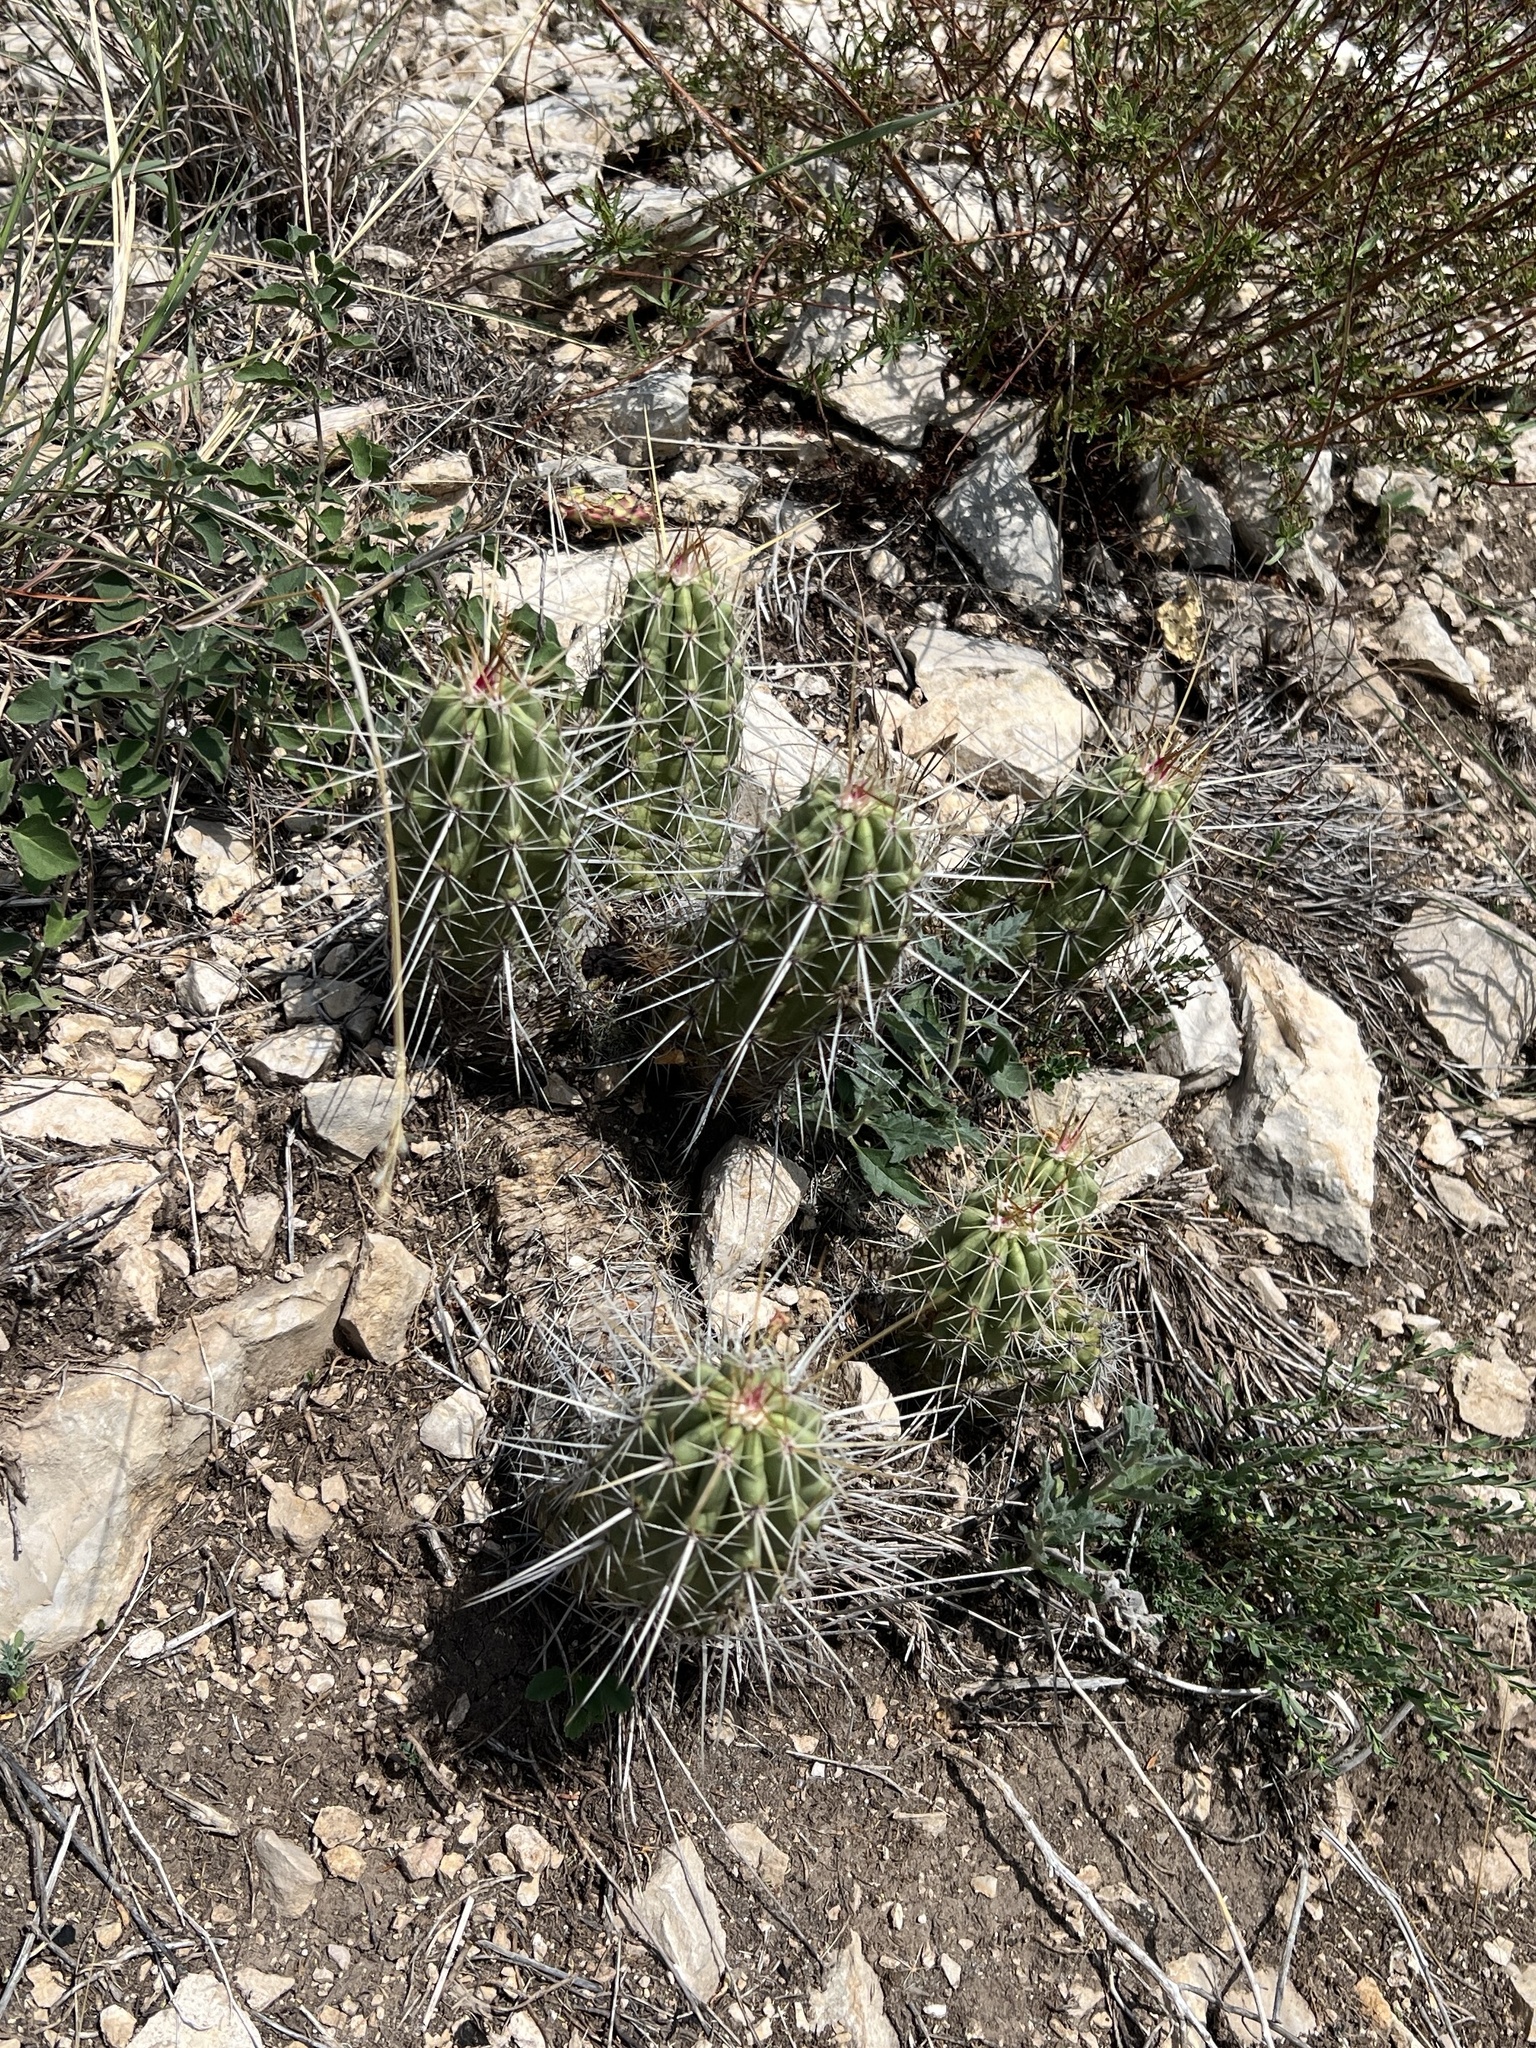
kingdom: Plantae
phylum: Tracheophyta
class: Magnoliopsida
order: Caryophyllales
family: Cactaceae
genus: Echinocereus
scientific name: Echinocereus enneacanthus
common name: Pitaya
